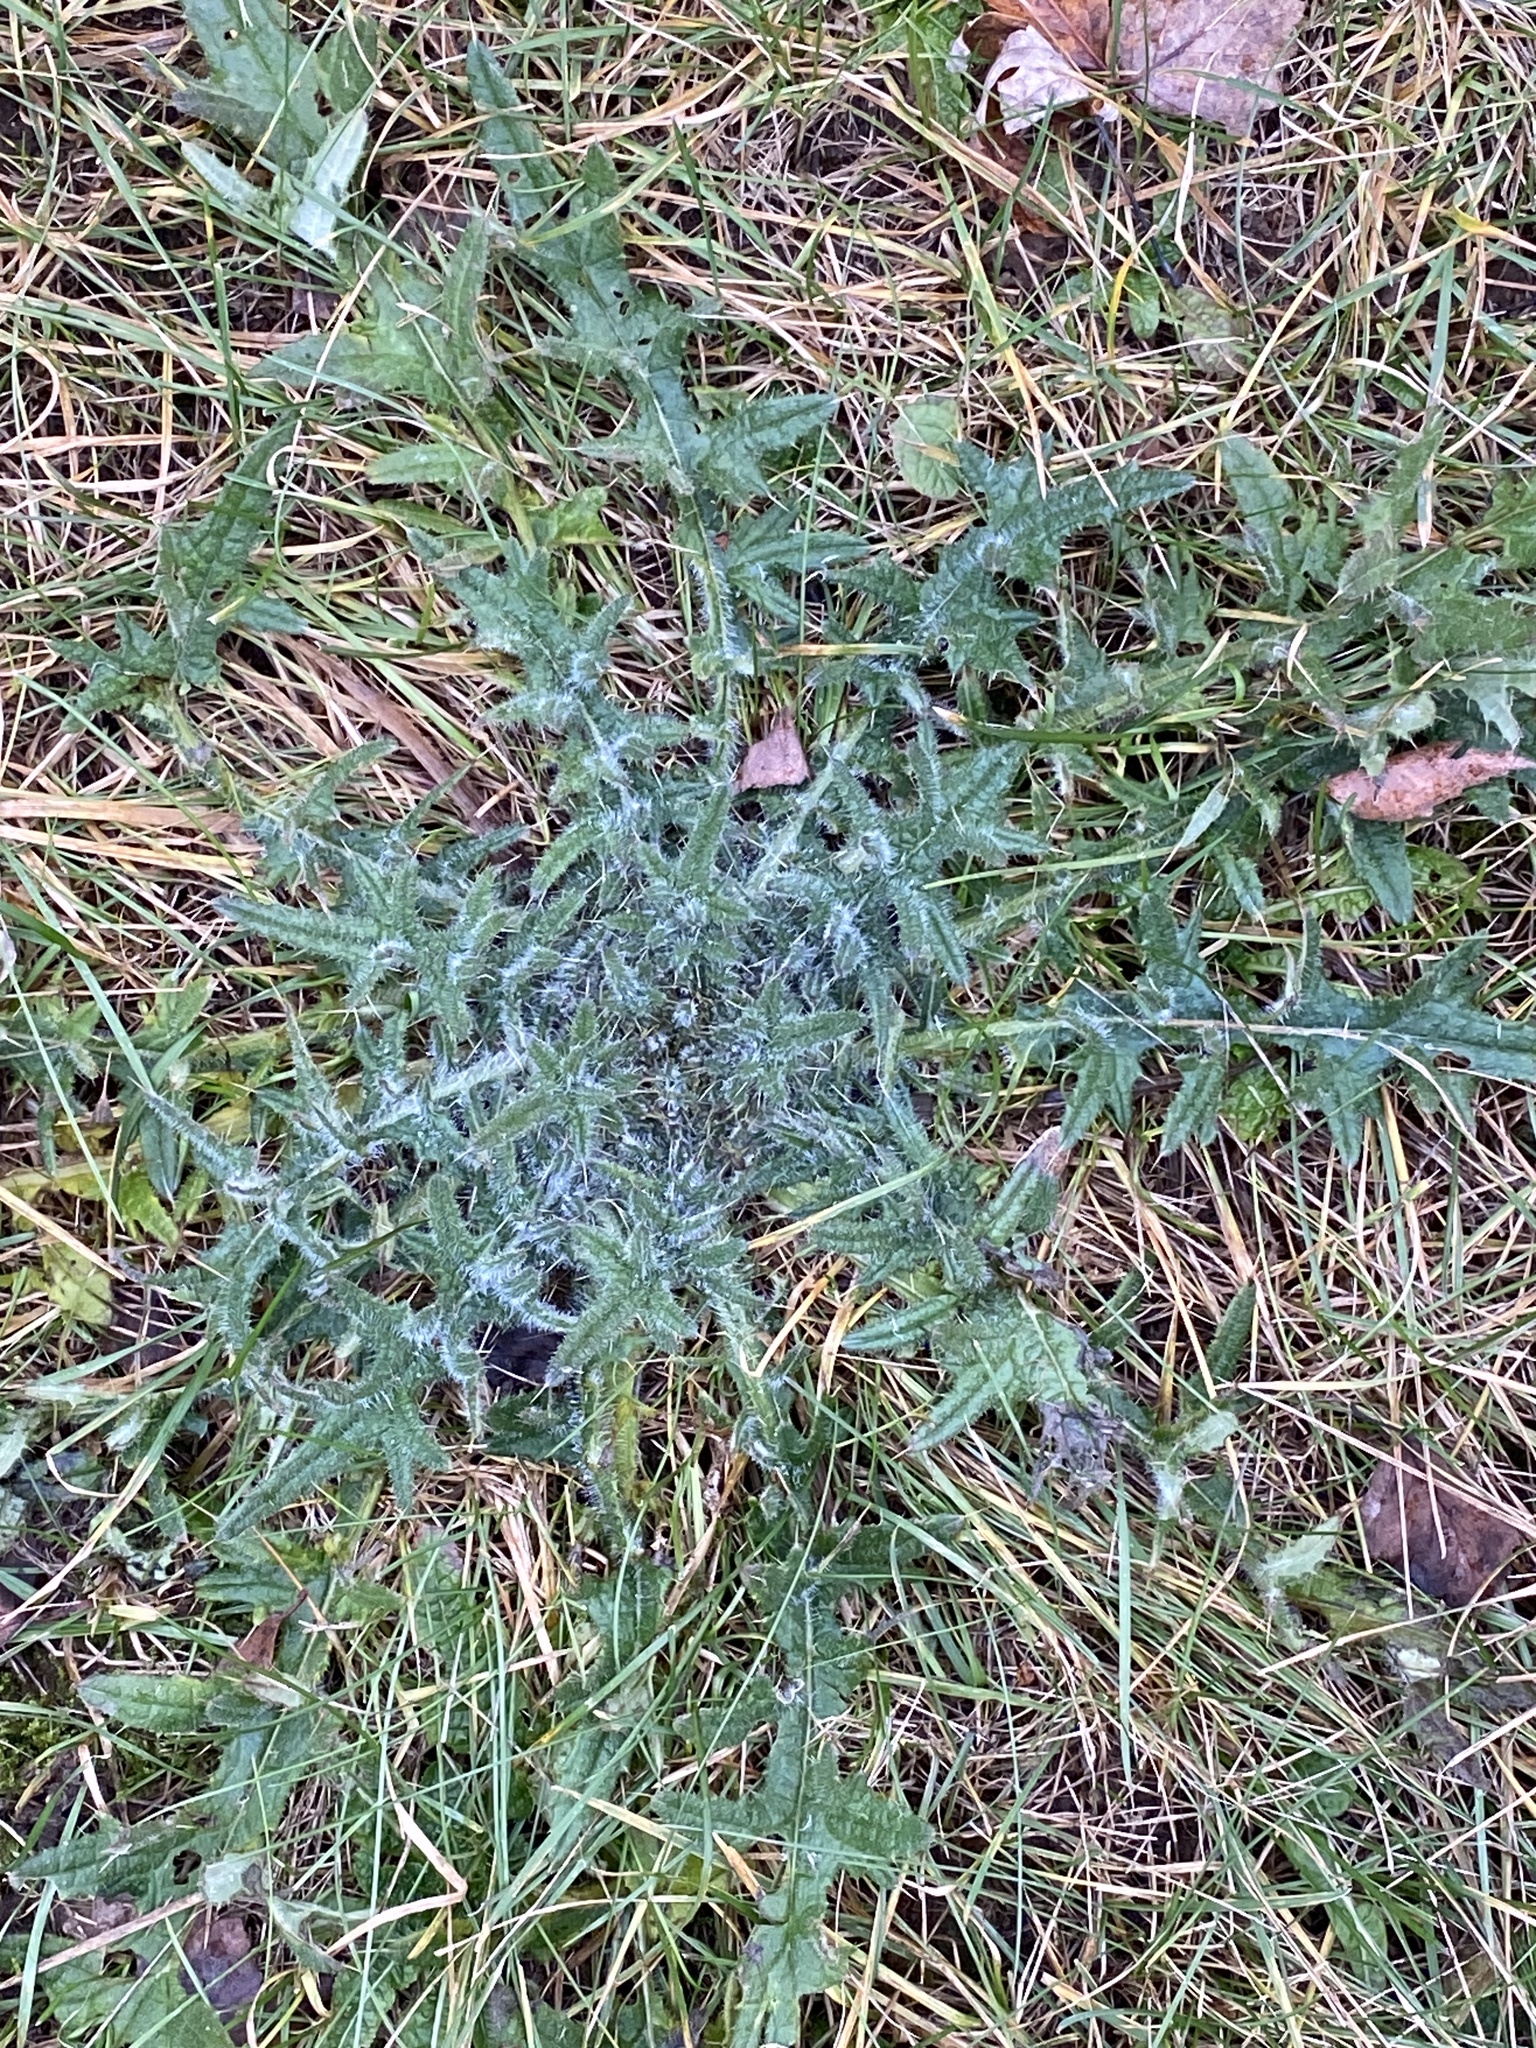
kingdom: Plantae
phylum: Tracheophyta
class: Magnoliopsida
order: Asterales
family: Asteraceae
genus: Cirsium
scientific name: Cirsium vulgare
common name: Bull thistle
